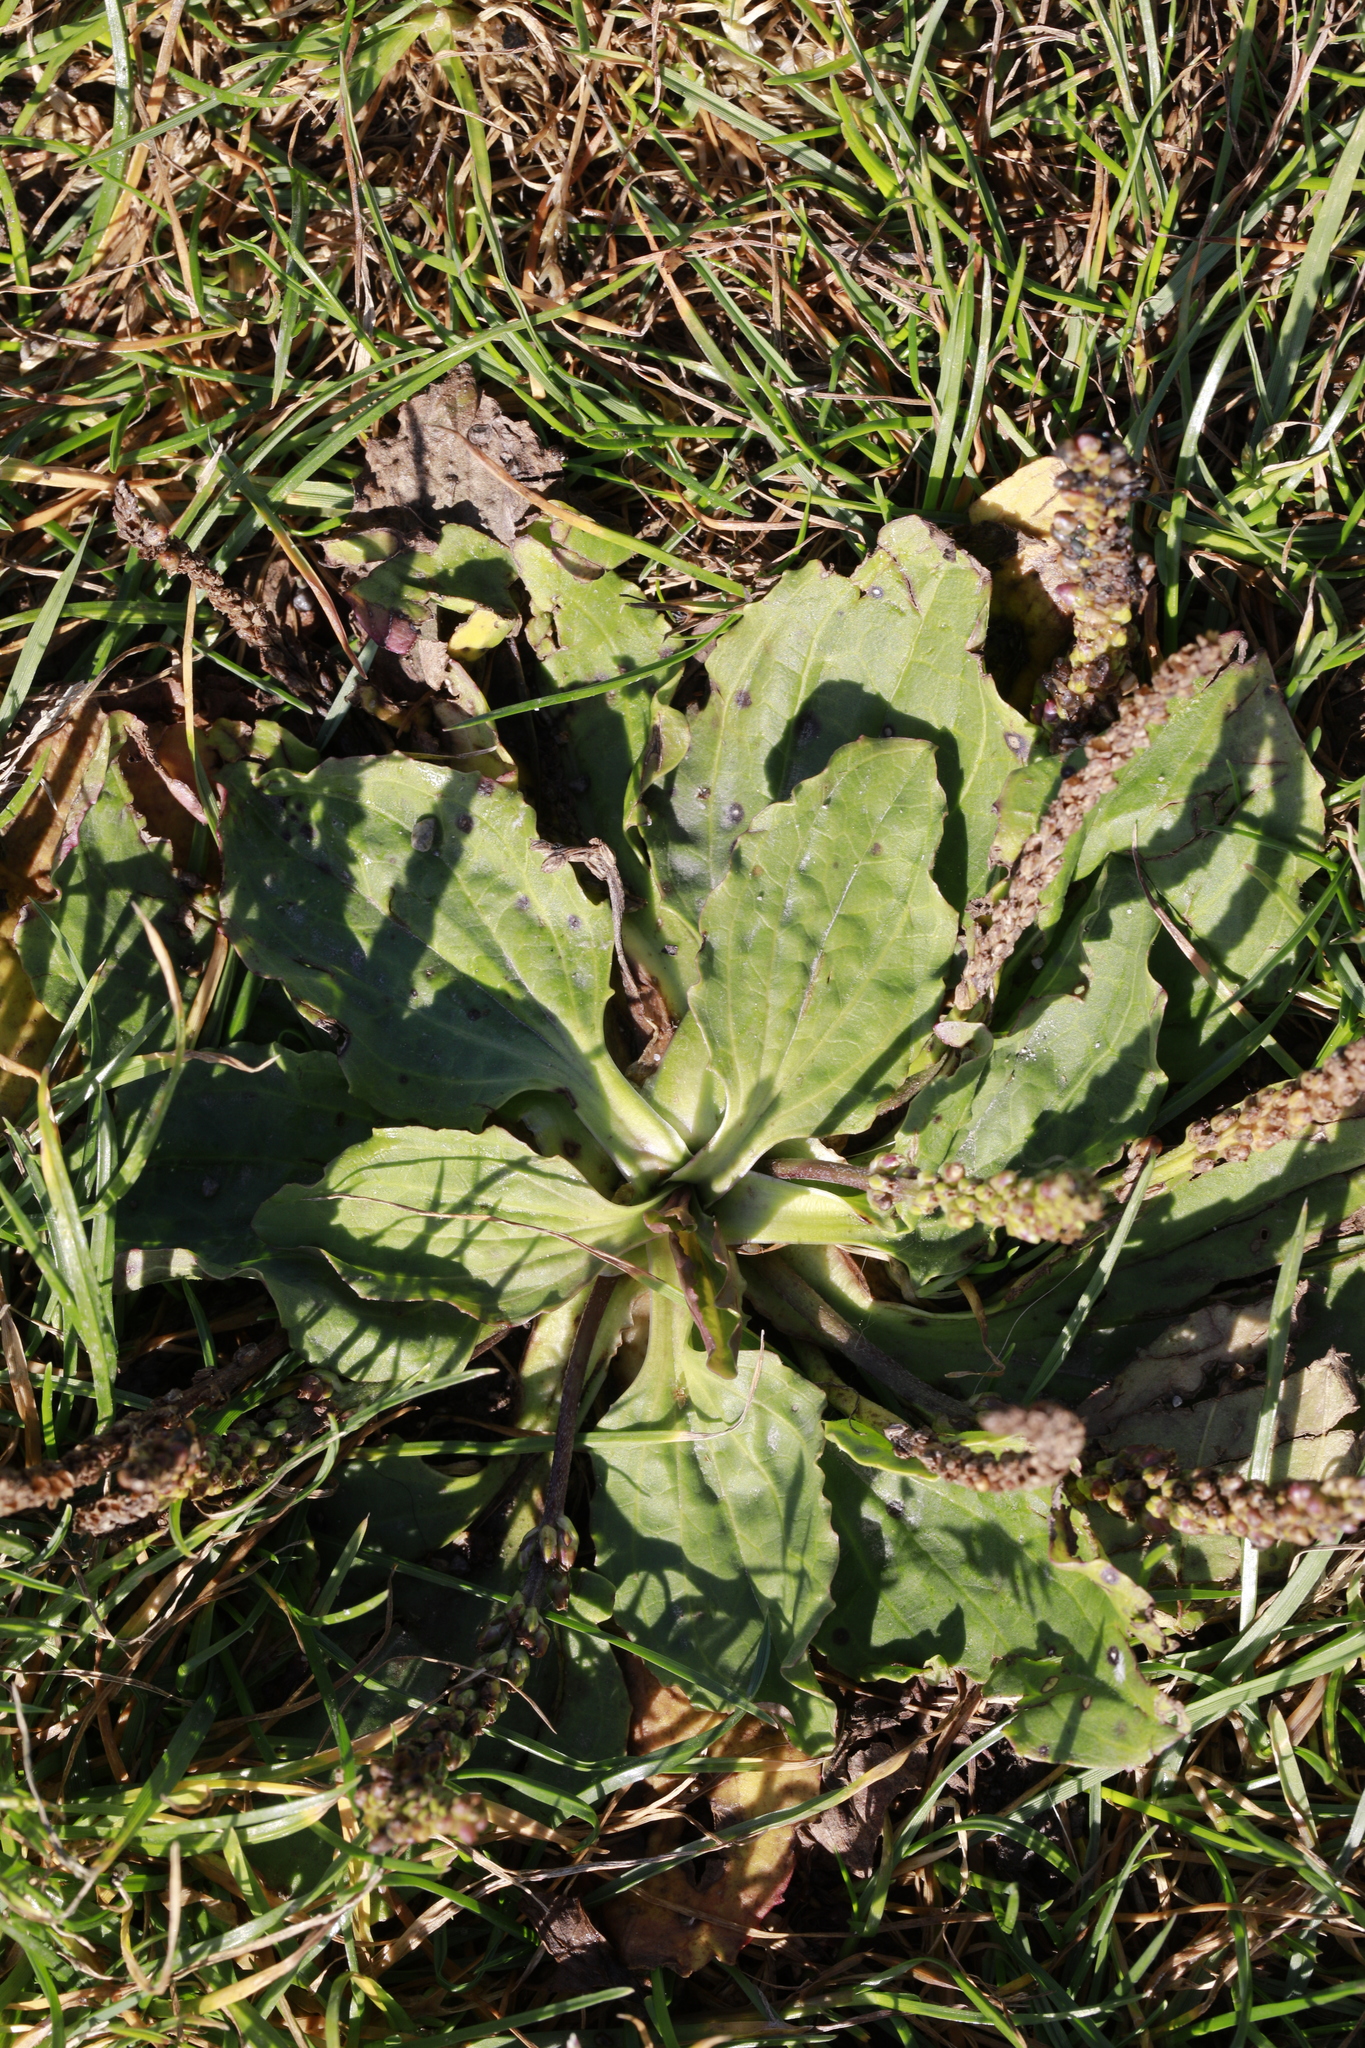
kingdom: Plantae
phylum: Tracheophyta
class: Magnoliopsida
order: Lamiales
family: Plantaginaceae
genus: Plantago
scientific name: Plantago major
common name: Common plantain
